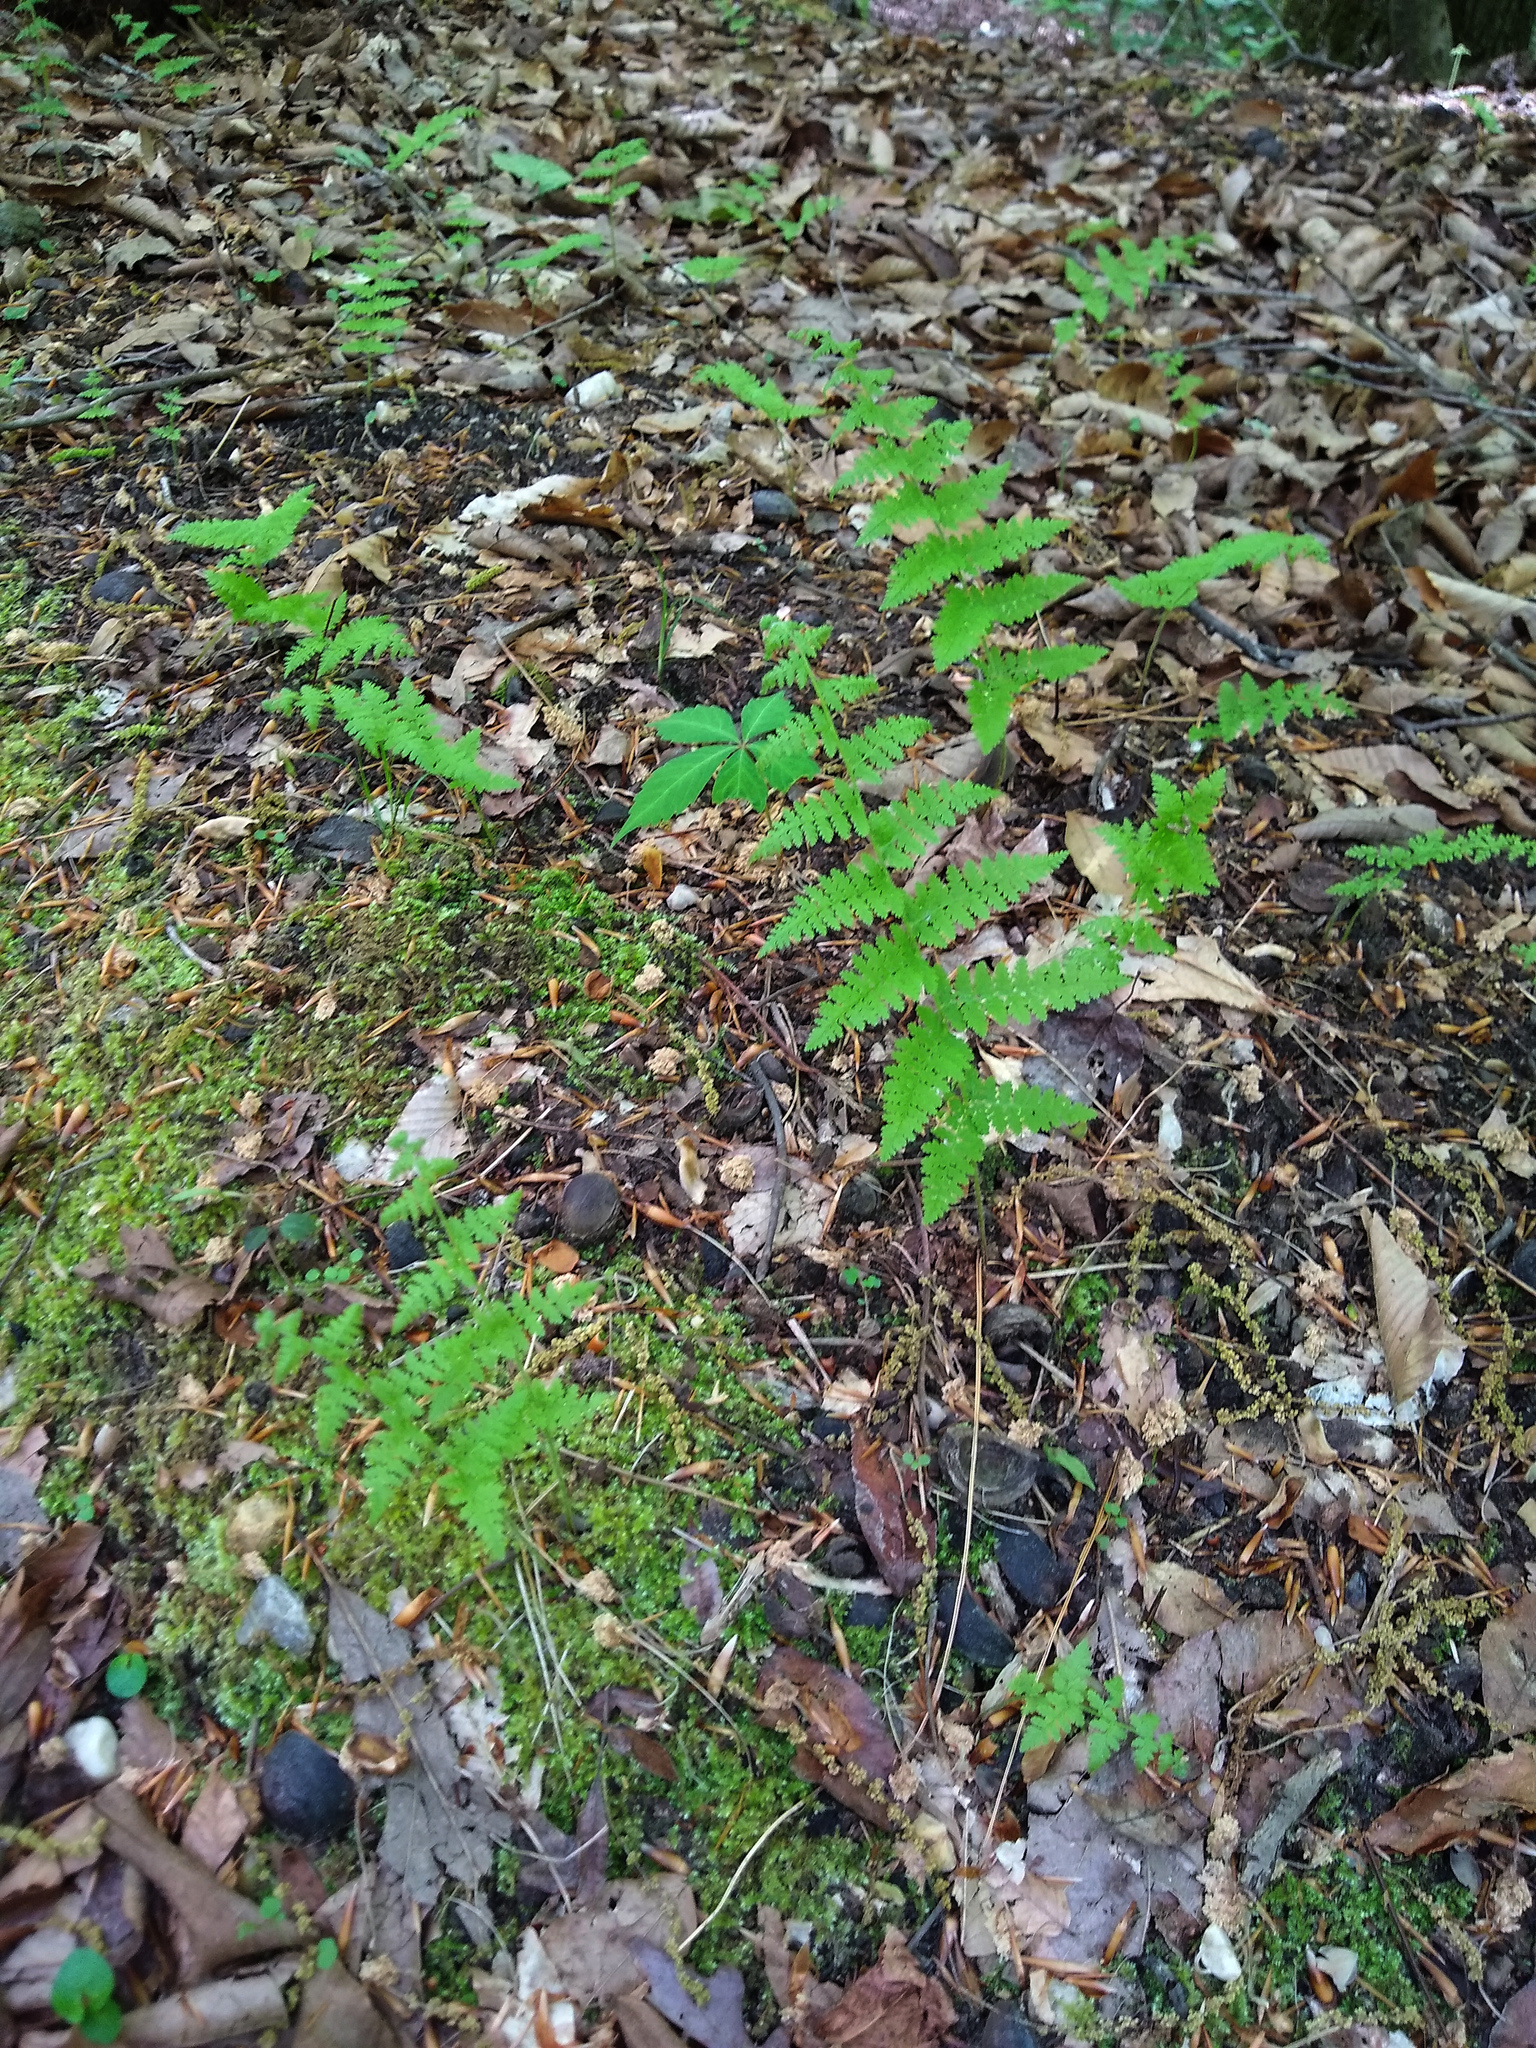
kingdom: Plantae
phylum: Tracheophyta
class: Polypodiopsida
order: Polypodiales
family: Dennstaedtiaceae
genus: Sitobolium
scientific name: Sitobolium punctilobum
